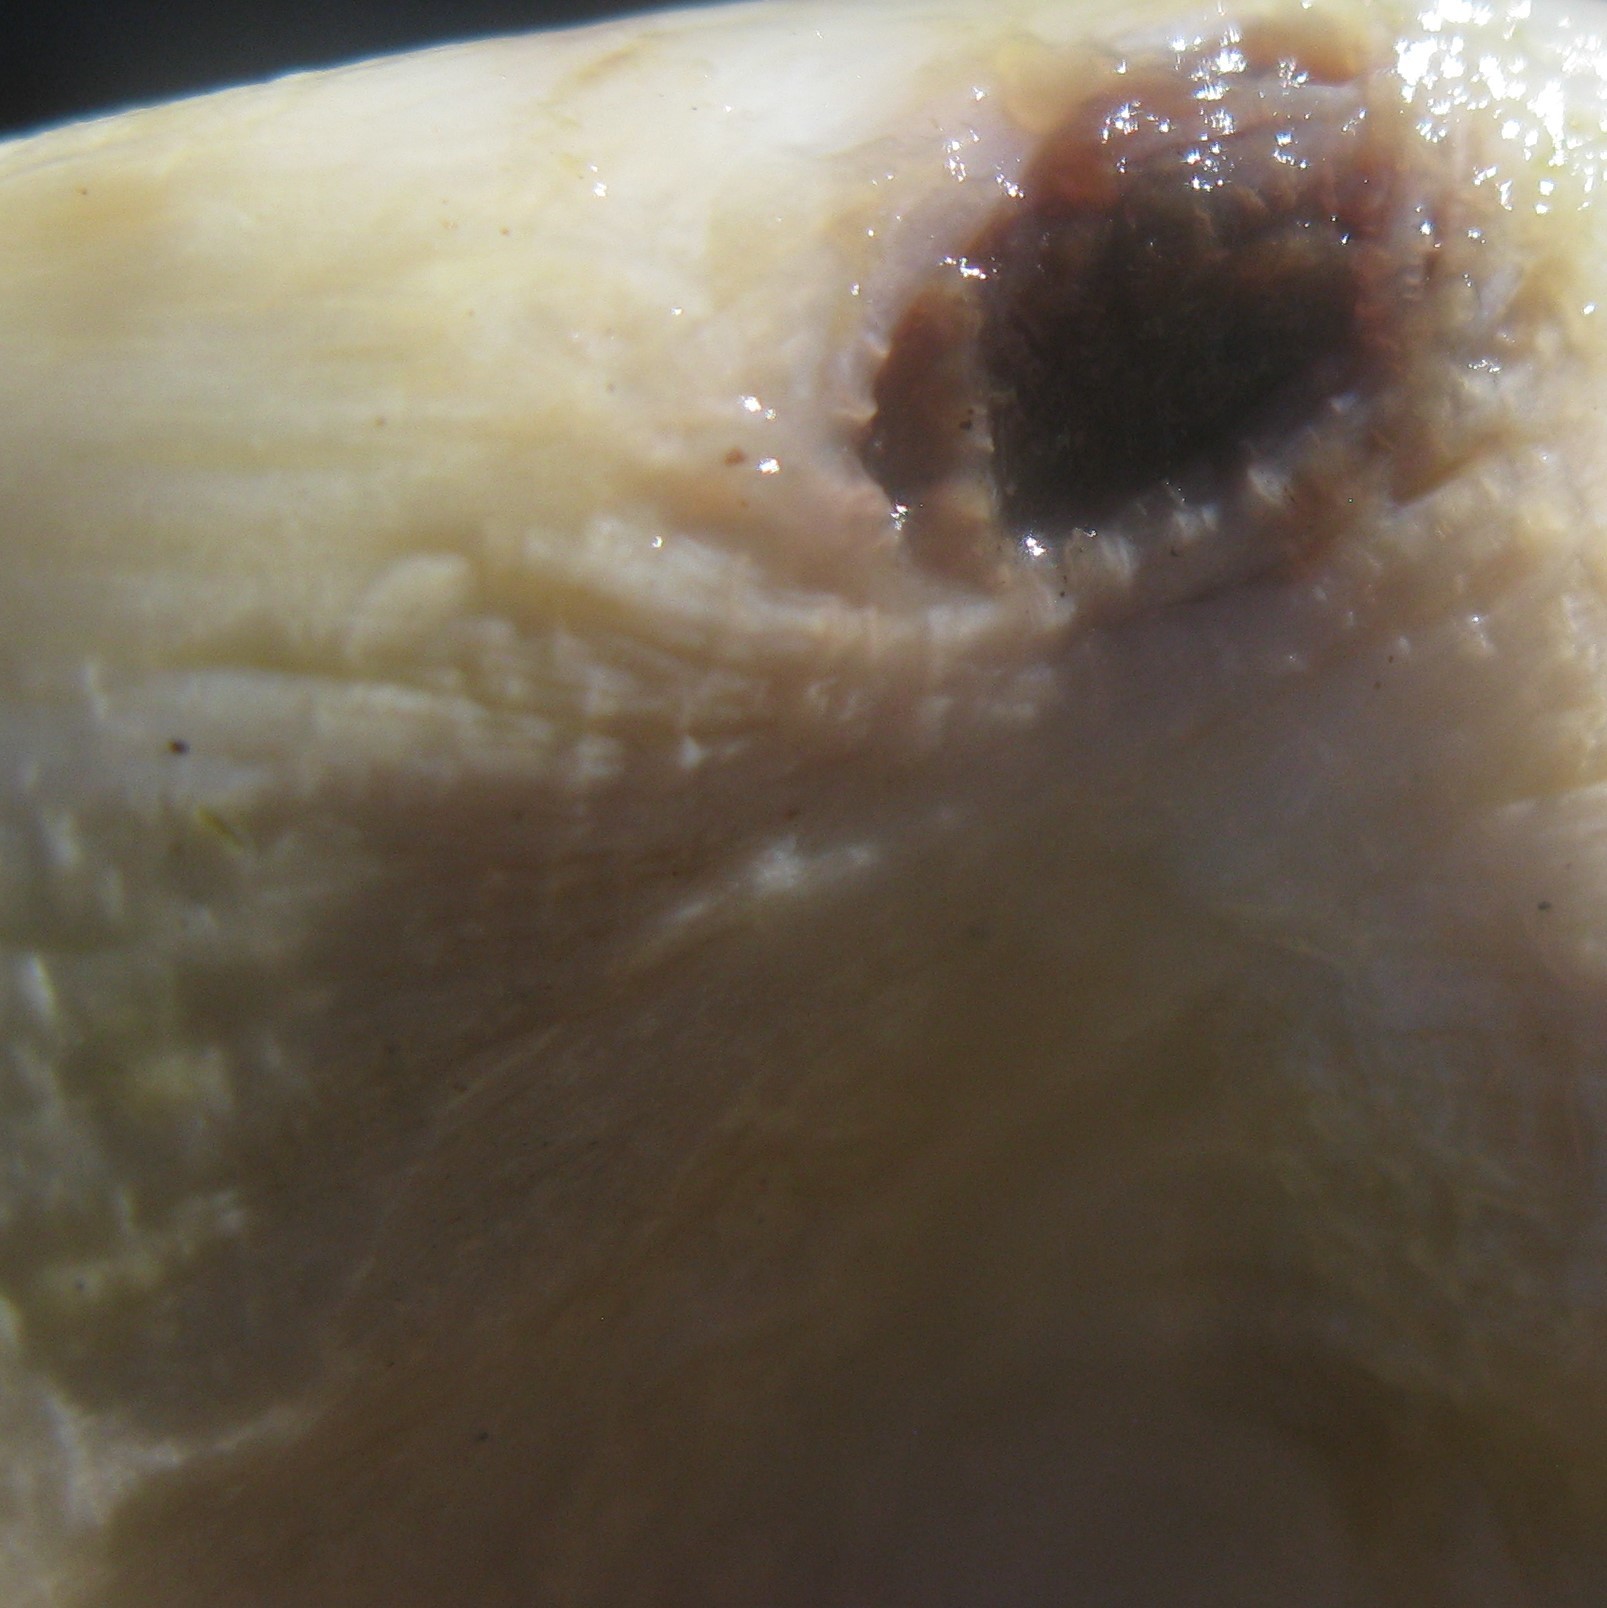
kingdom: Animalia
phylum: Chordata
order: Tetraodontiformes
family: Diodontidae
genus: Allomycterus
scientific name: Allomycterus pilatus
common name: No common name
